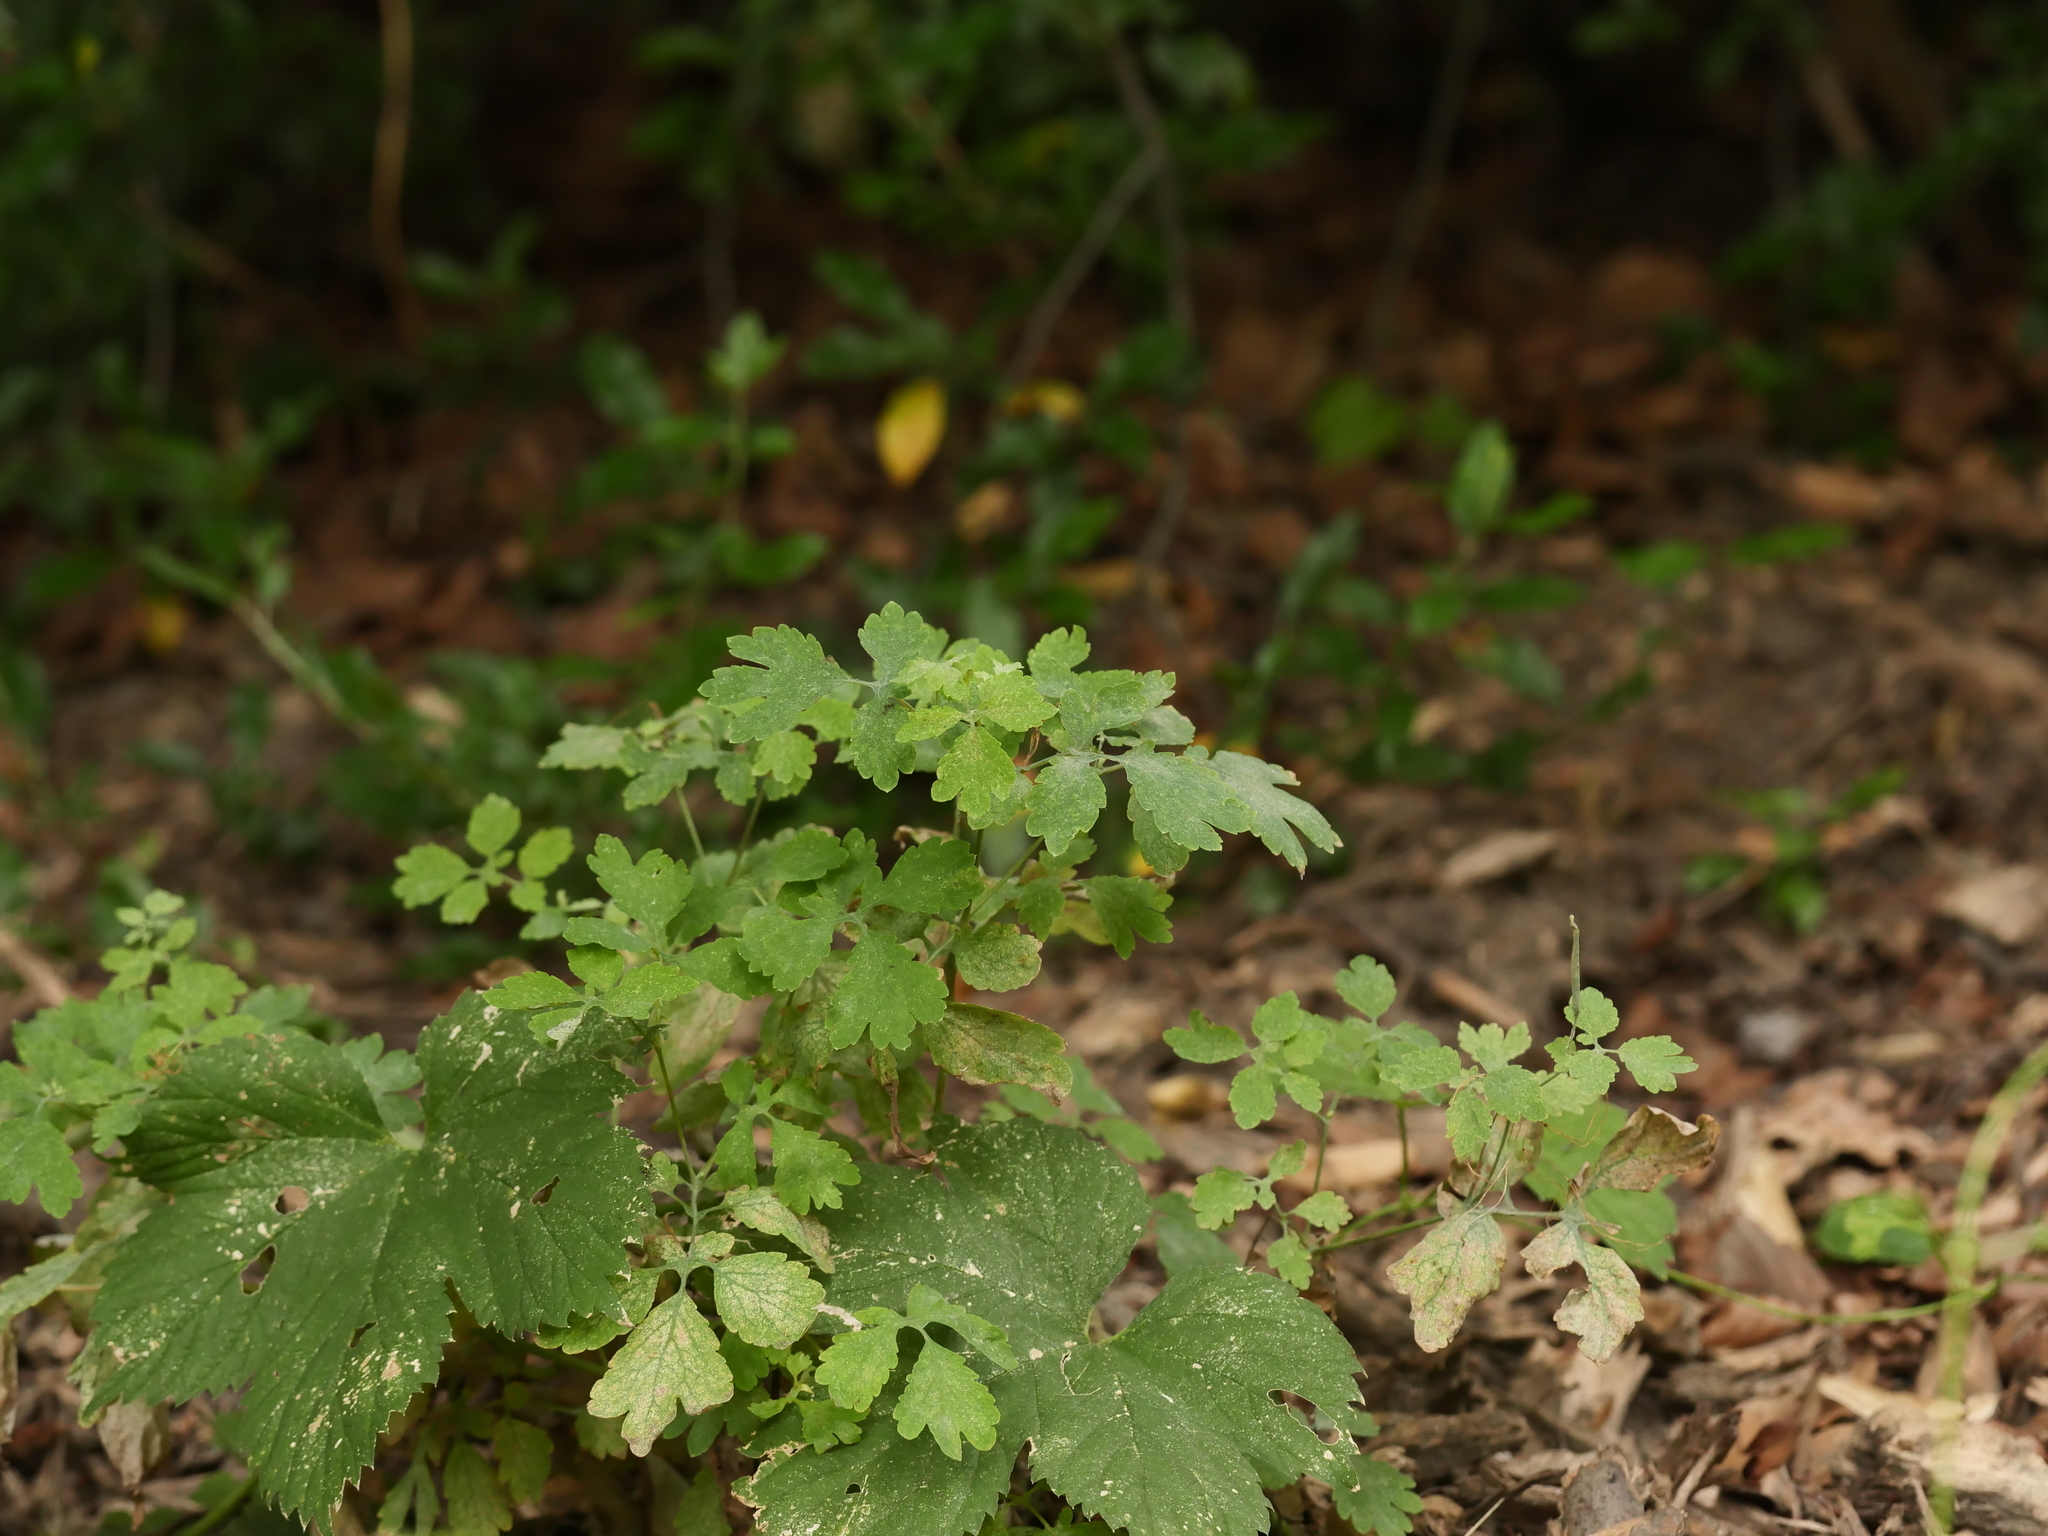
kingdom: Plantae
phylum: Tracheophyta
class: Magnoliopsida
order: Ranunculales
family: Papaveraceae
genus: Chelidonium
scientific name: Chelidonium majus
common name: Greater celandine
